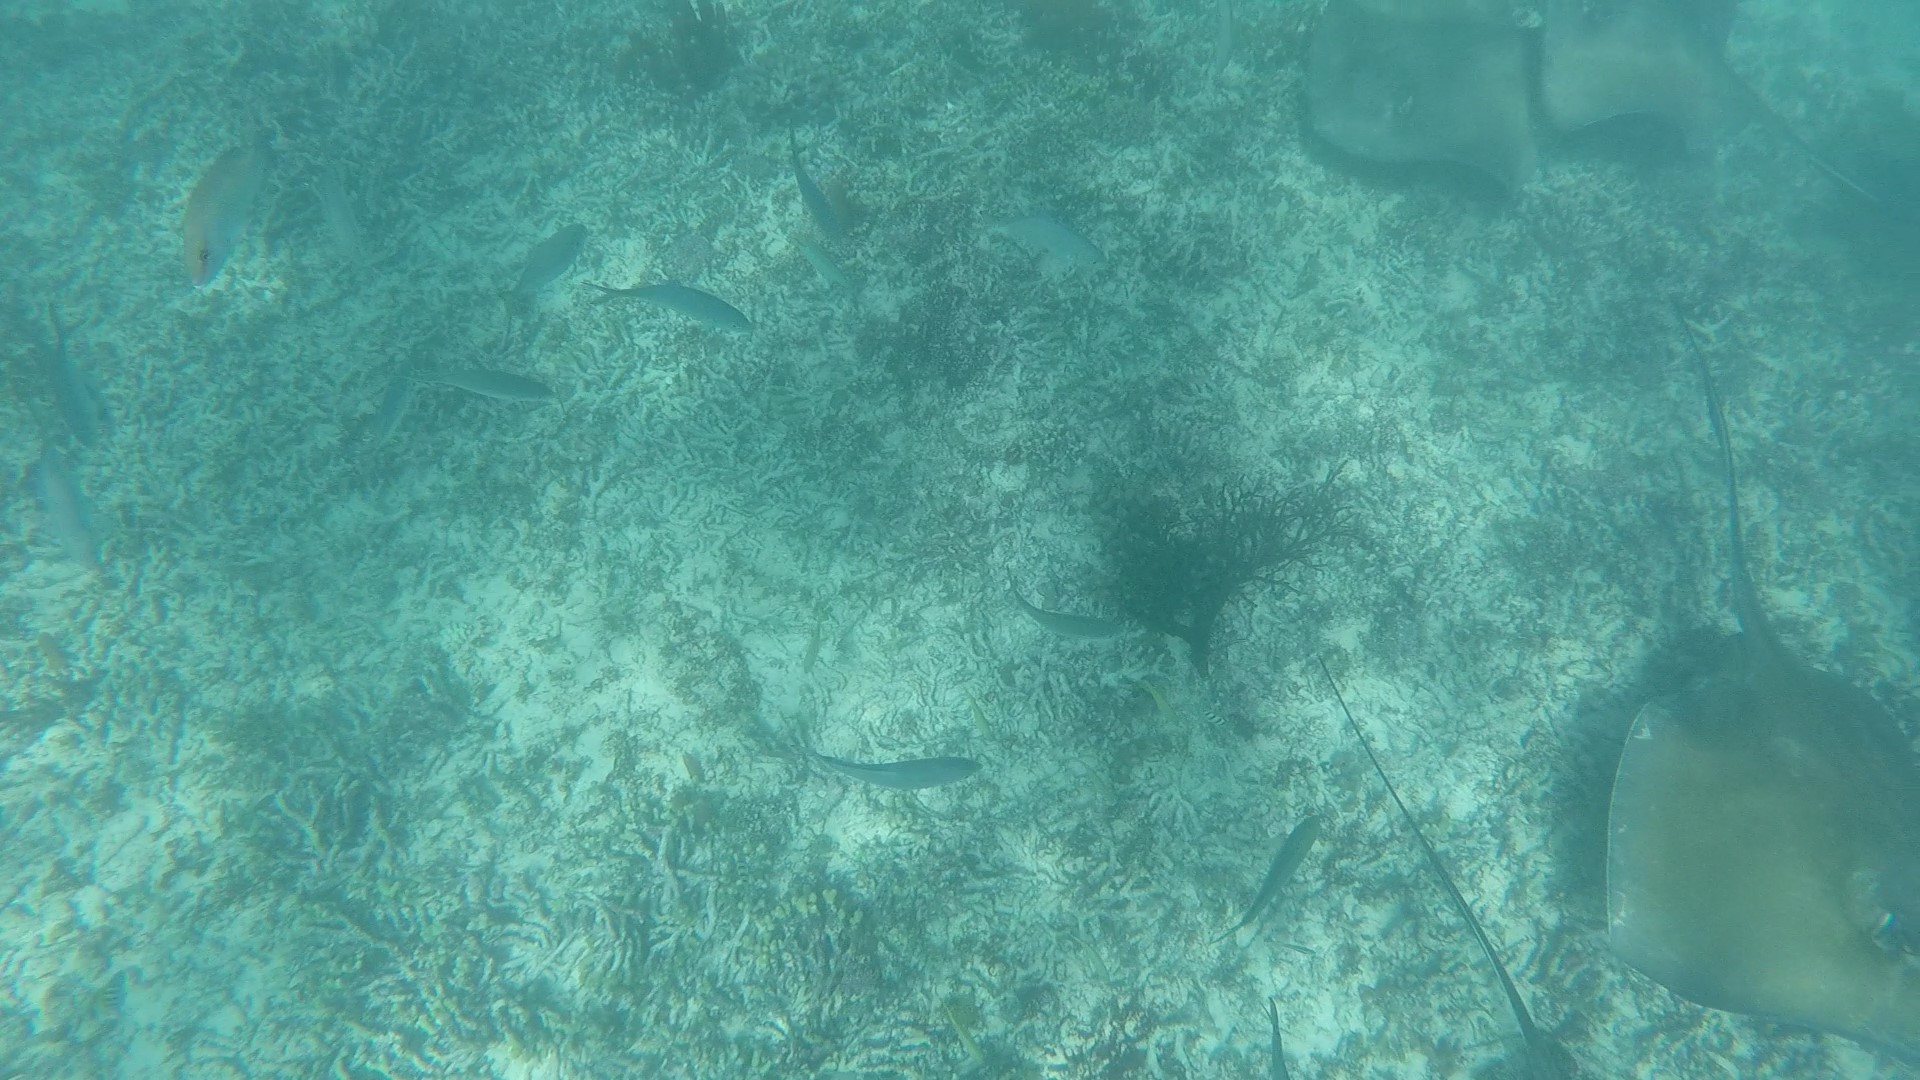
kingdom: Animalia
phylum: Chordata
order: Perciformes
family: Lutjanidae
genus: Lutjanus
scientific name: Lutjanus griseus
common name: Gray snapper
